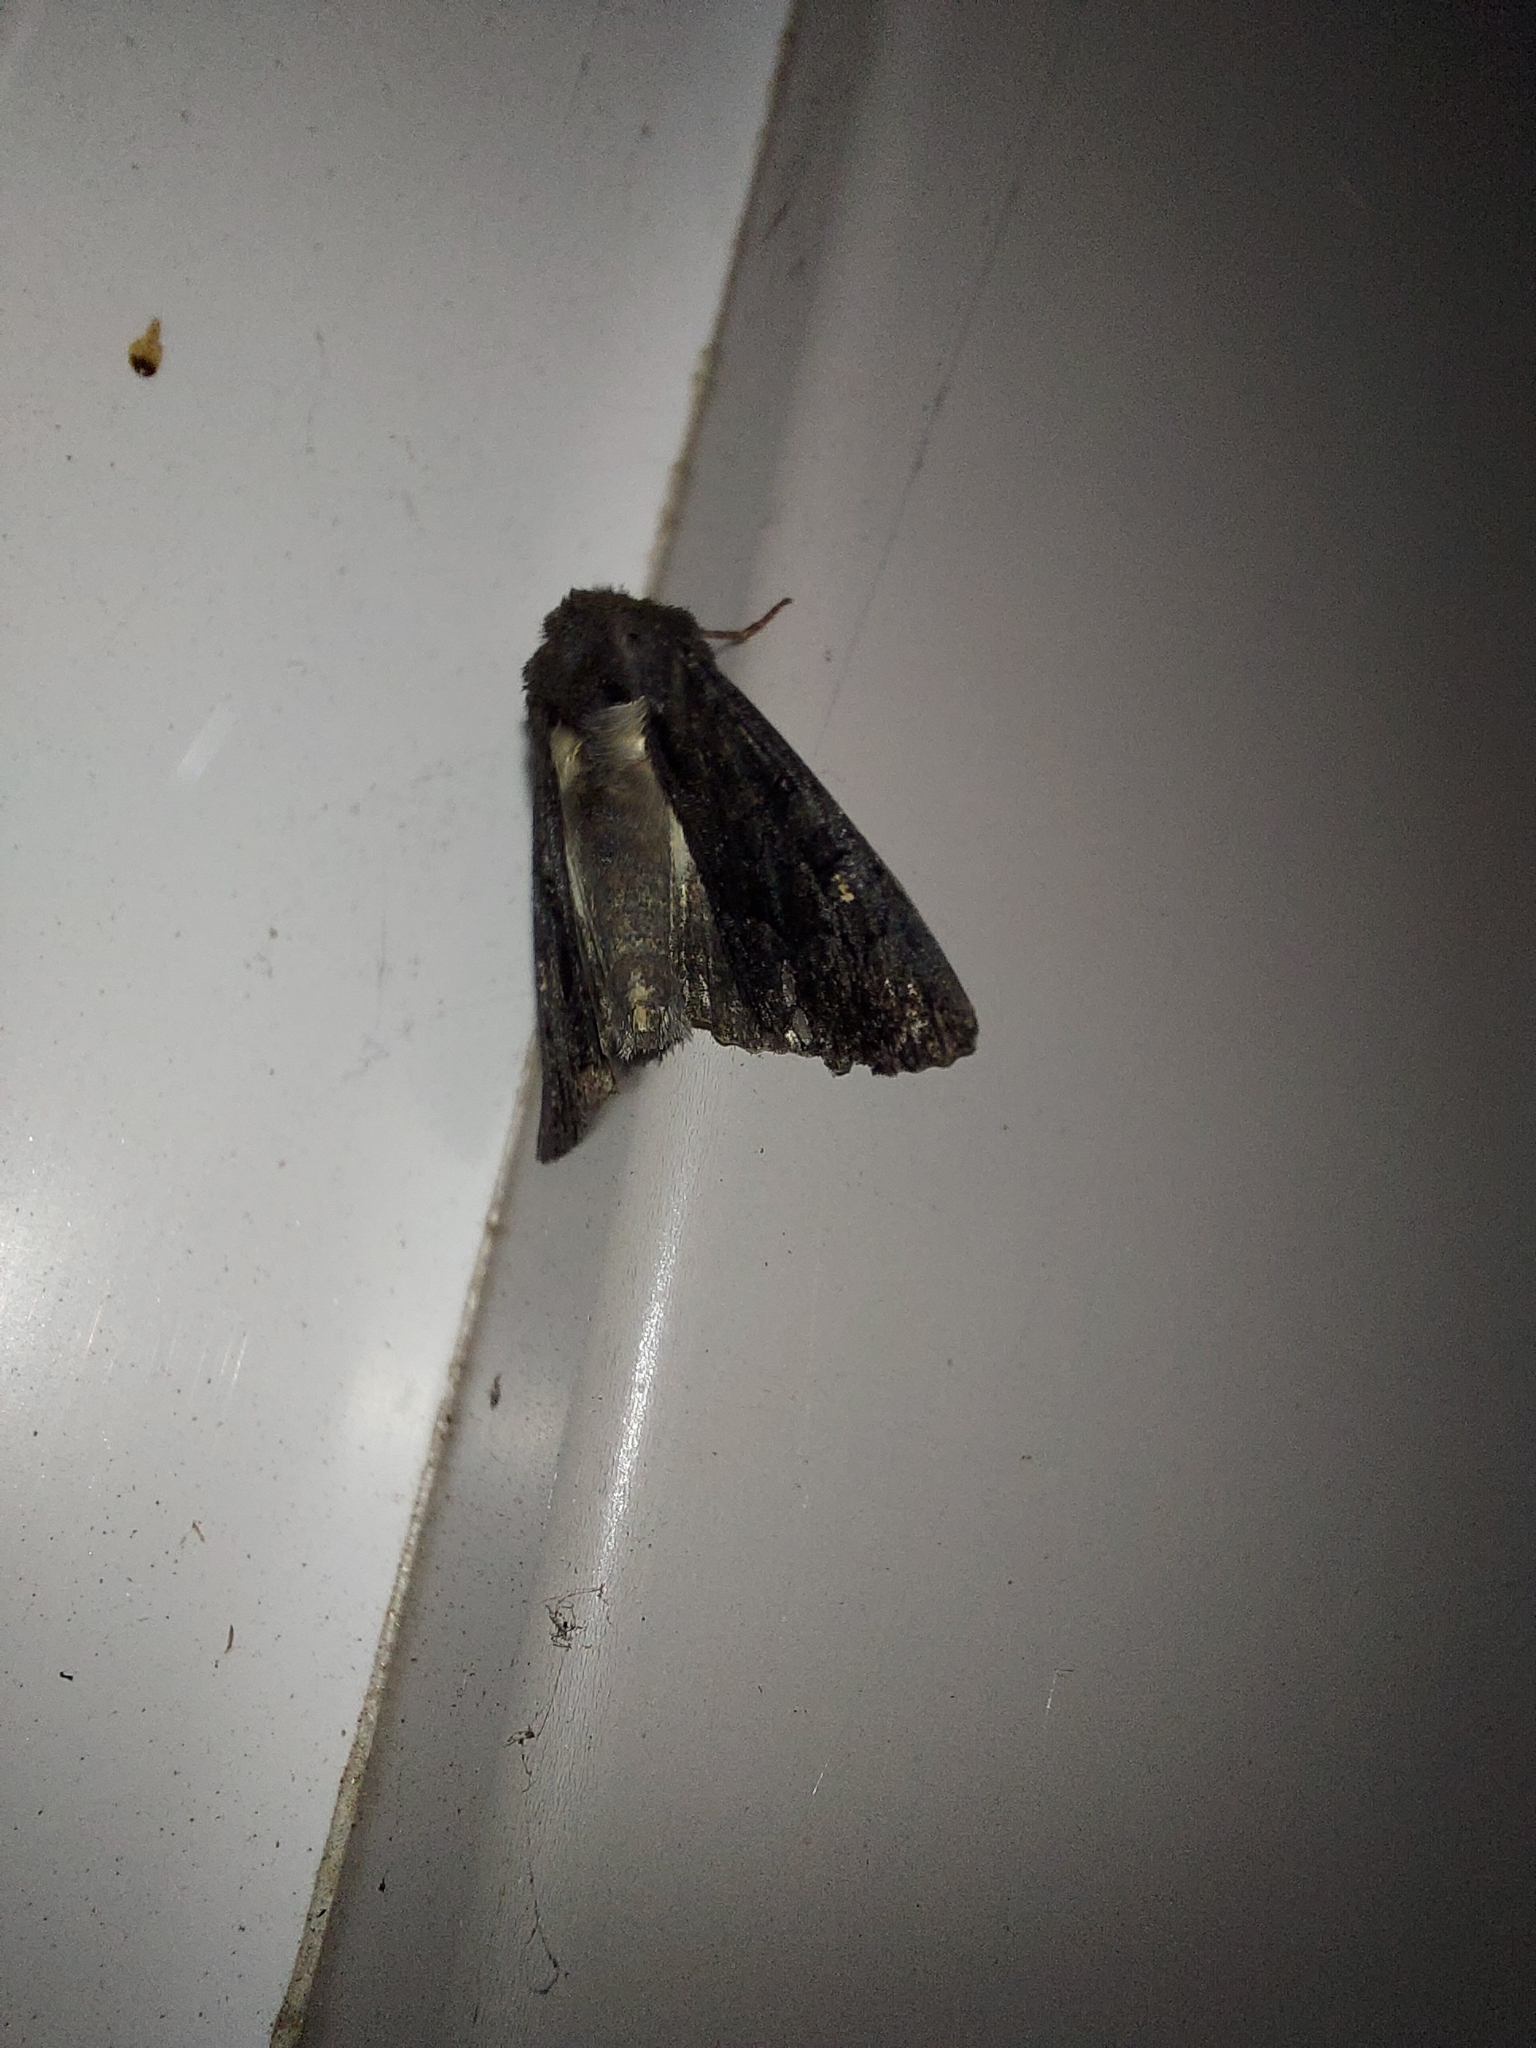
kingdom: Animalia
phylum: Arthropoda
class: Insecta
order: Lepidoptera
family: Noctuidae
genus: Neumichtis
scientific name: Neumichtis nigerrima
